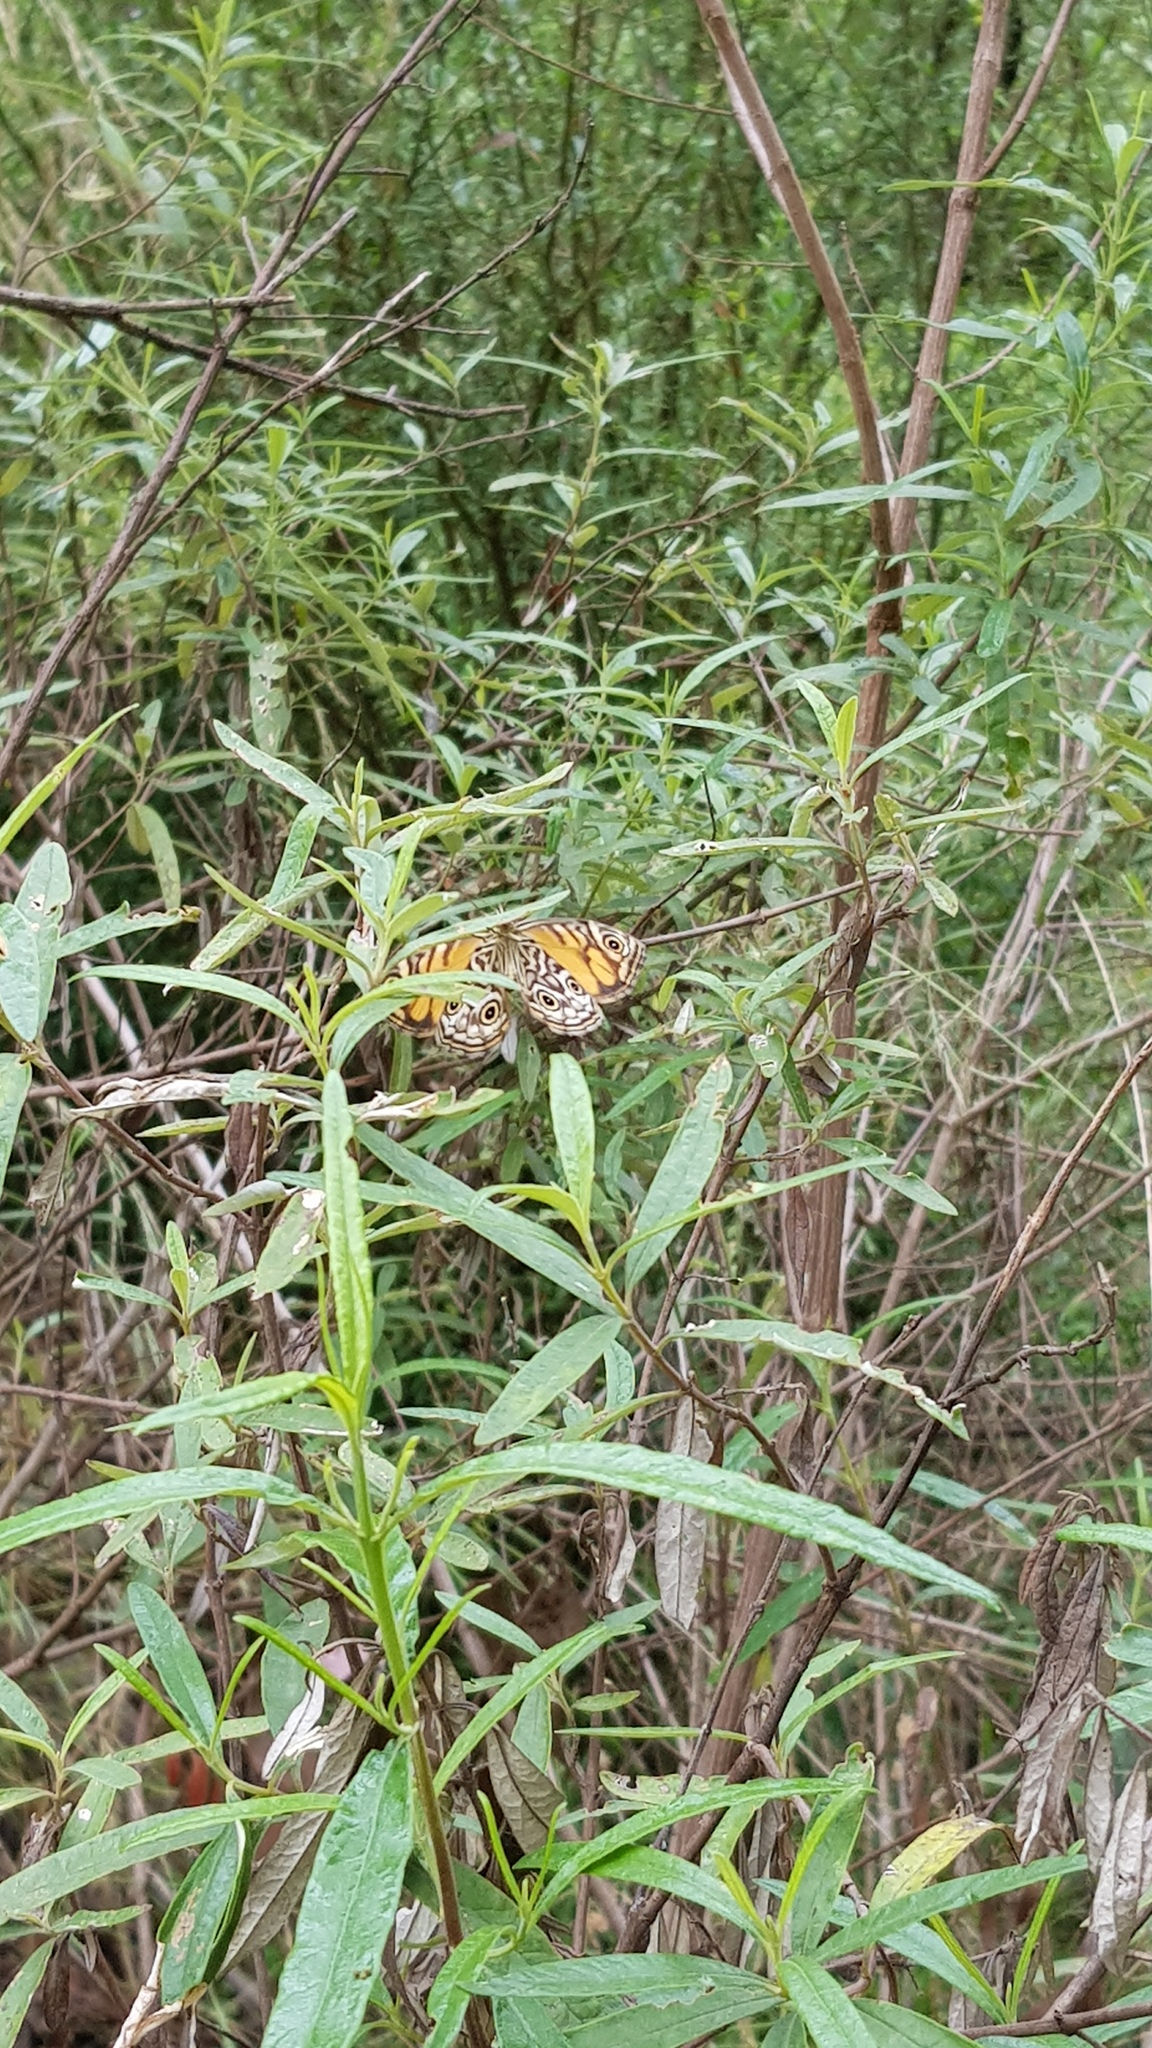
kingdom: Animalia
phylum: Arthropoda
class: Insecta
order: Lepidoptera
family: Nymphalidae
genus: Geitoneura
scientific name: Geitoneura acantha
